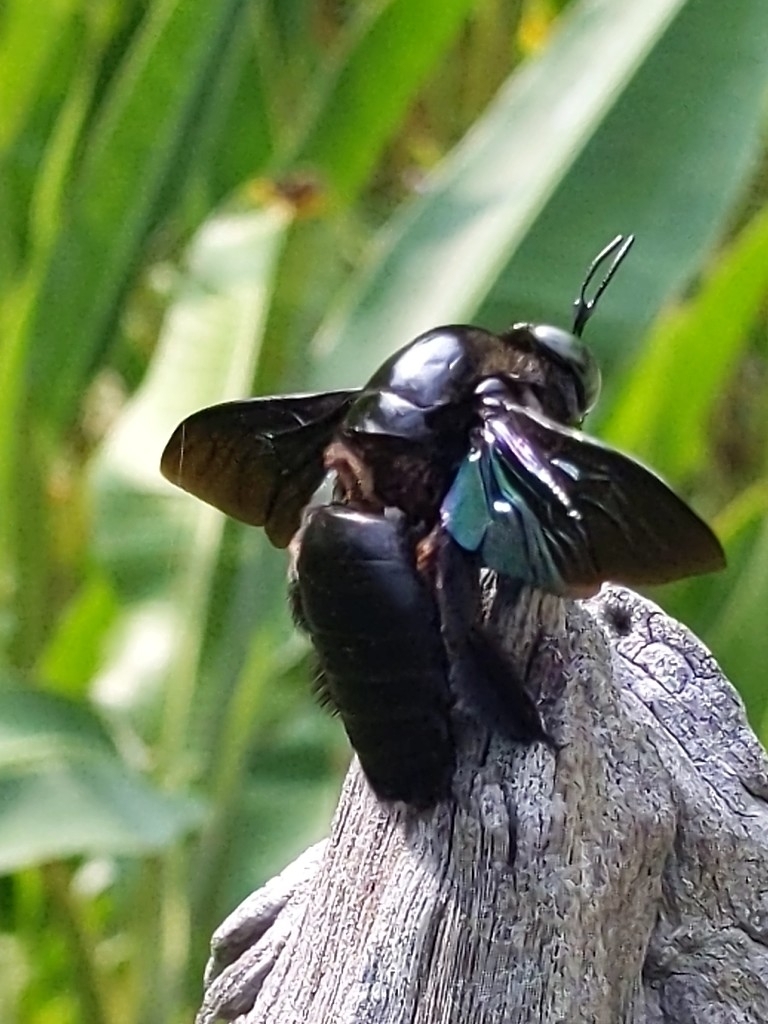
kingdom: Animalia
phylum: Arthropoda
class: Insecta
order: Hymenoptera
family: Apidae
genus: Xylocopa
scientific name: Xylocopa latipes
